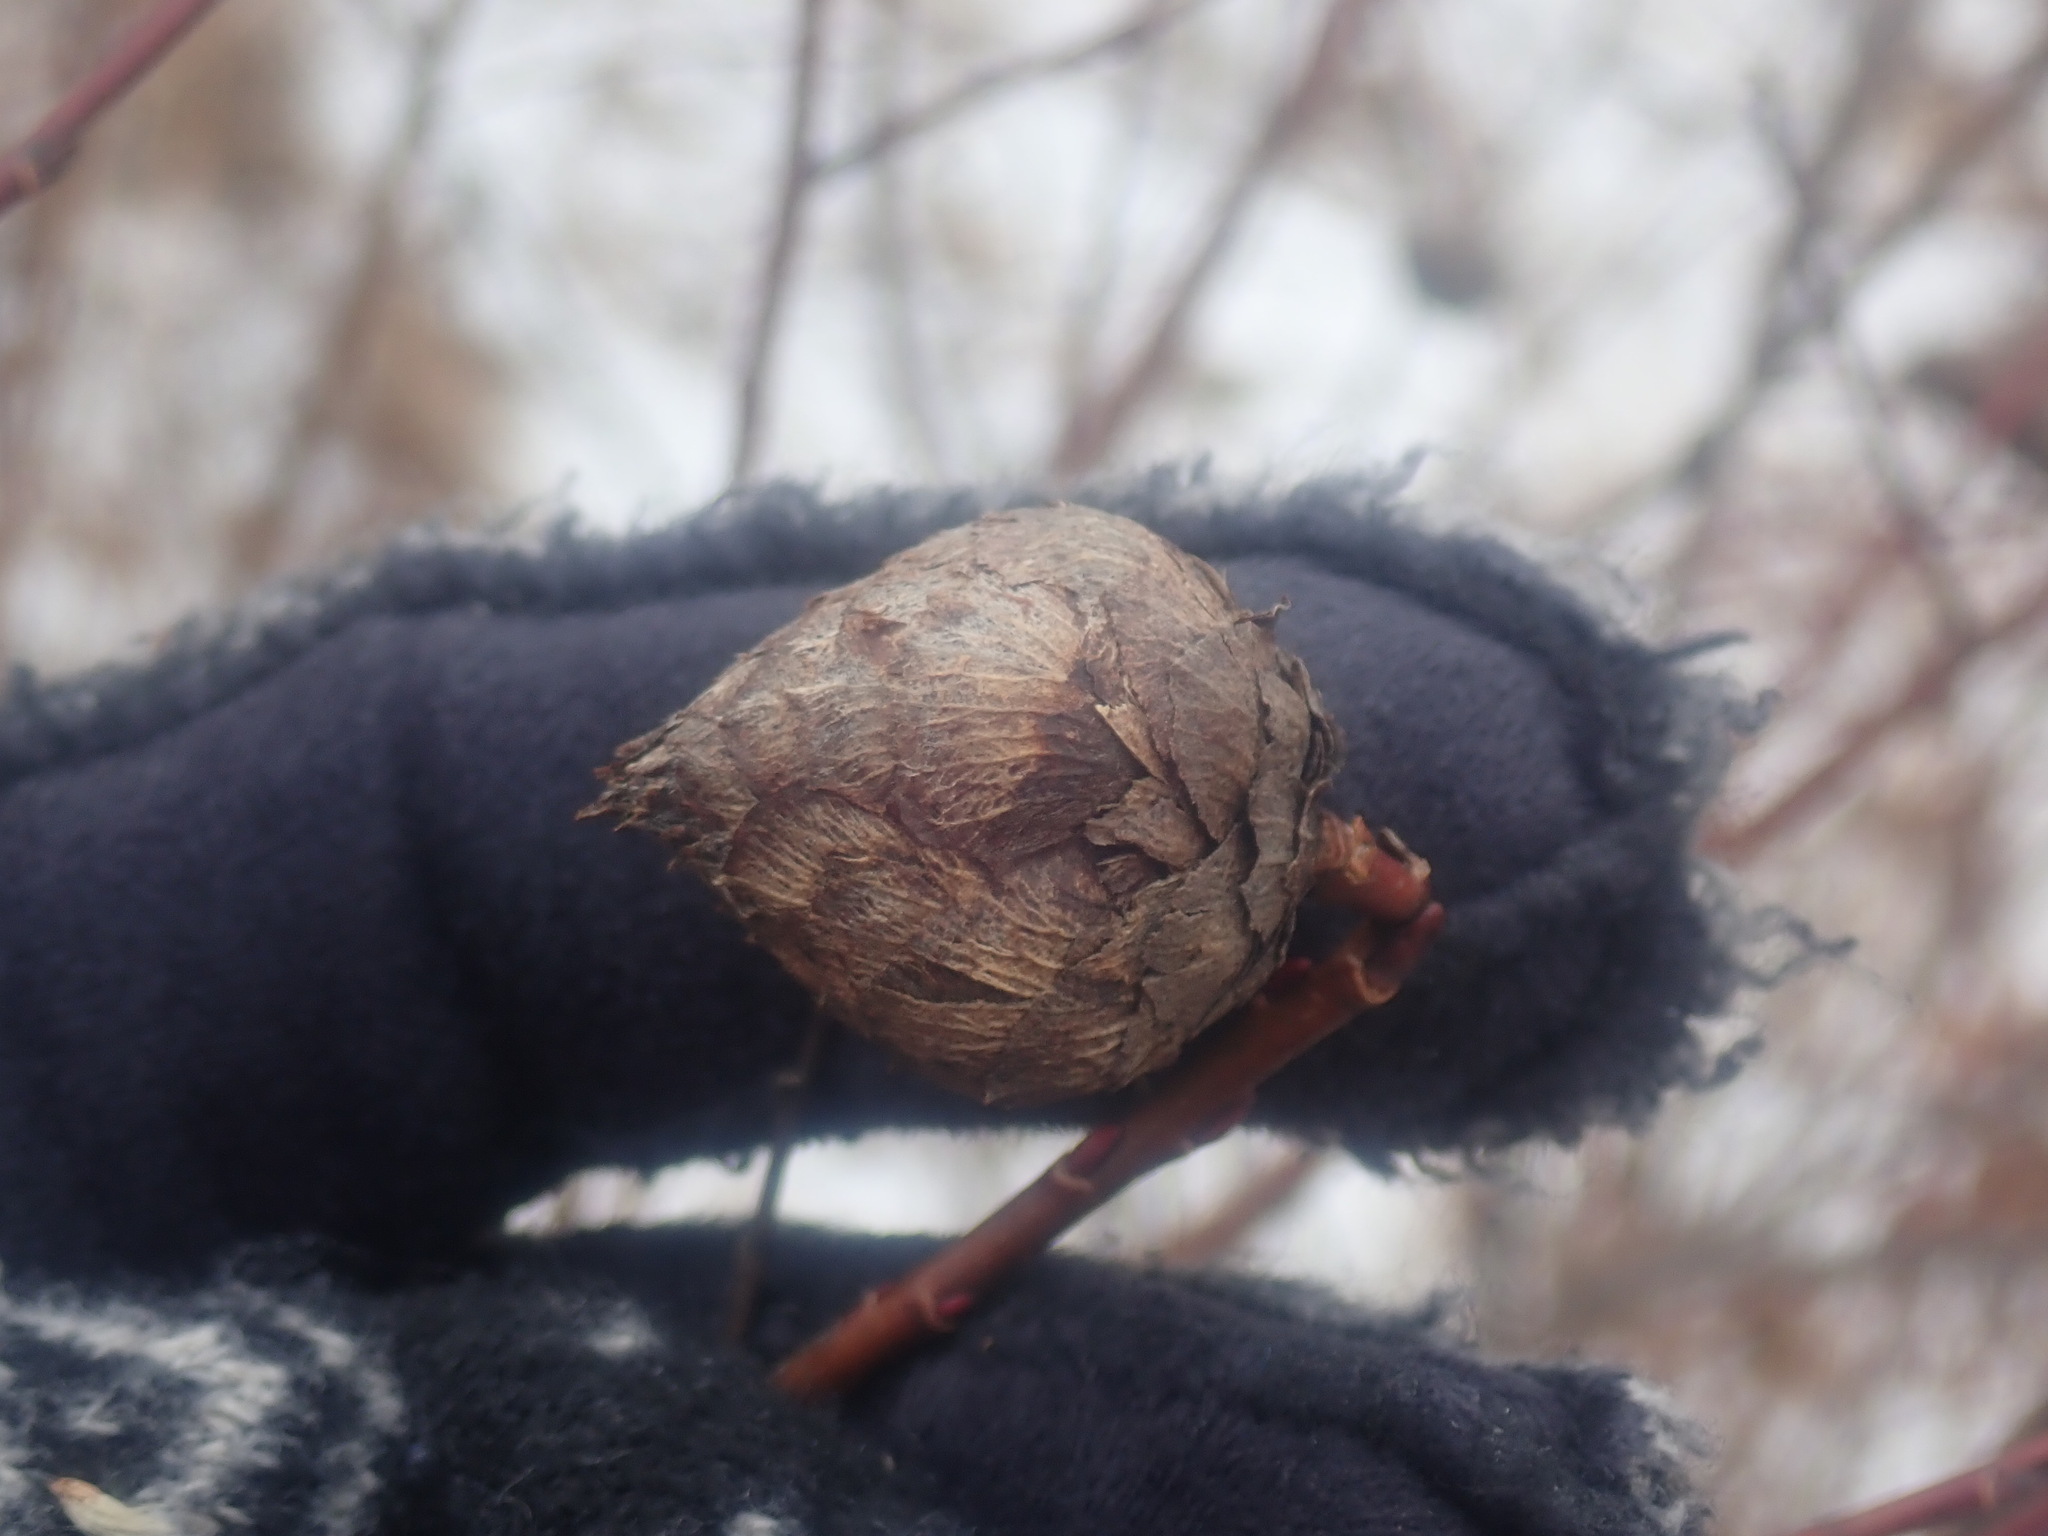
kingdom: Animalia
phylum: Arthropoda
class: Insecta
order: Diptera
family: Cecidomyiidae
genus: Rabdophaga
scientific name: Rabdophaga strobiloides
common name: Willow pinecone gall midge
